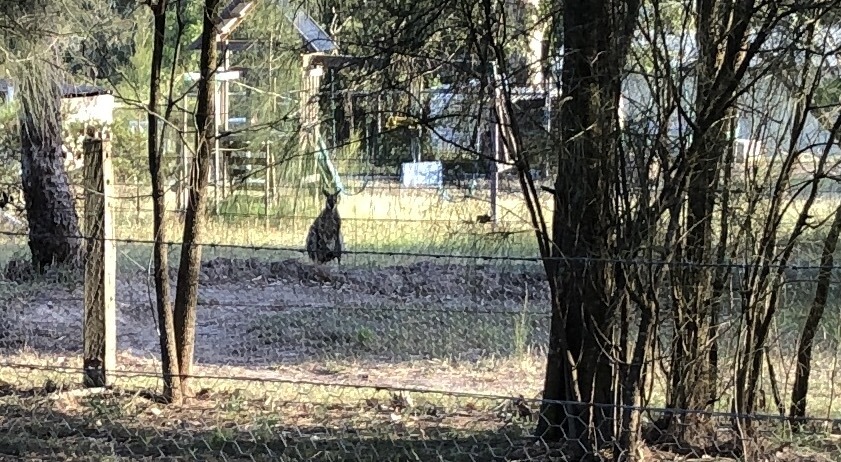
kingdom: Animalia
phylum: Chordata
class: Mammalia
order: Diprotodontia
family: Macropodidae
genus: Notamacropus
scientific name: Notamacropus rufogriseus
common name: Red-necked wallaby
